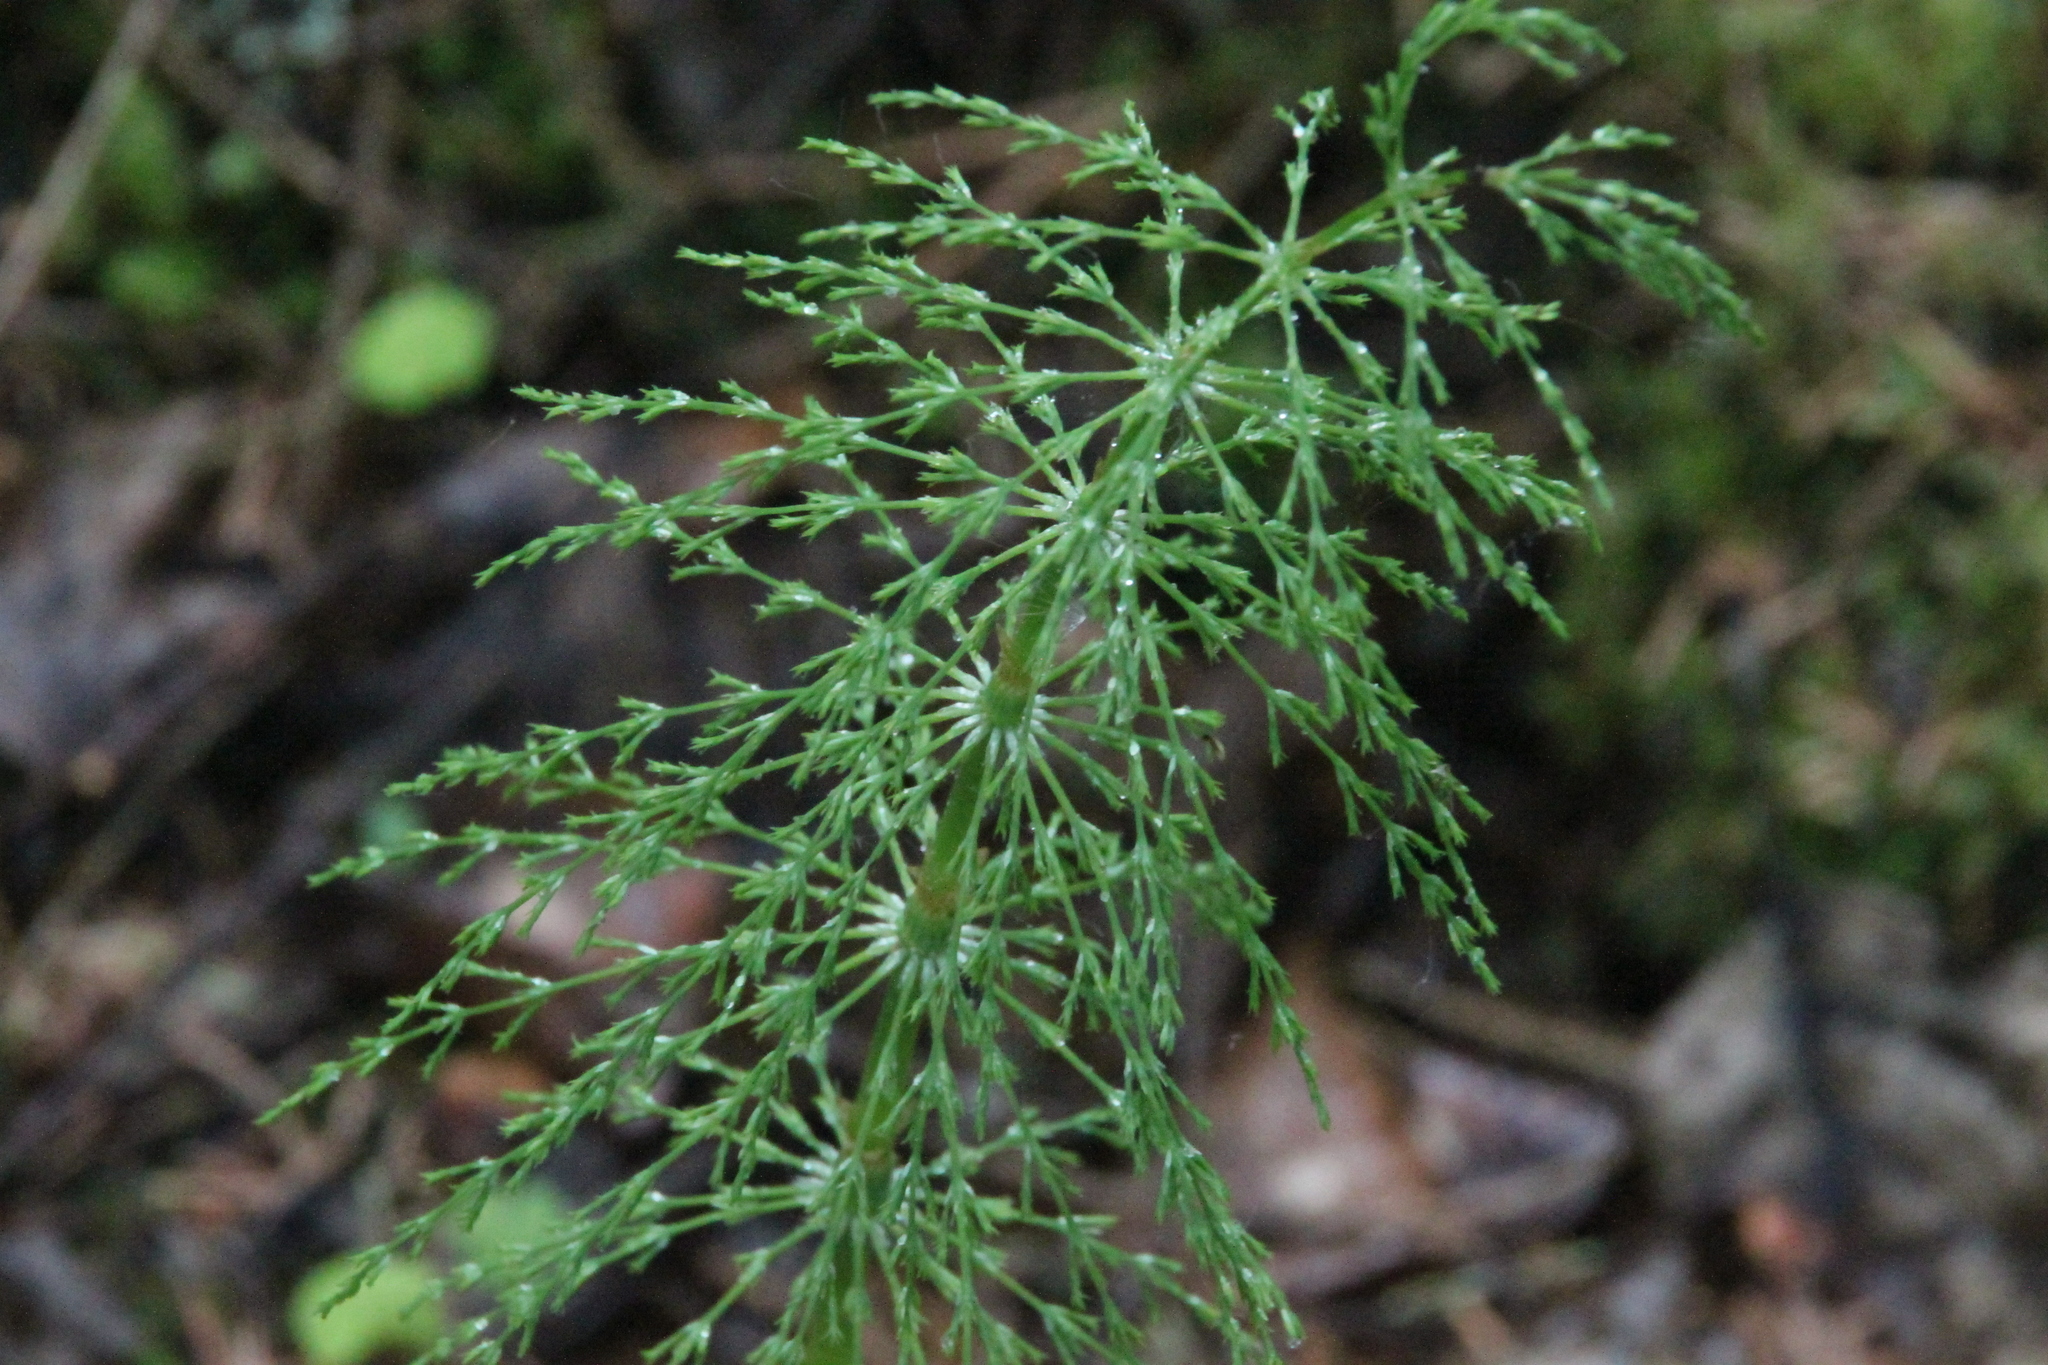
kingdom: Plantae
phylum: Tracheophyta
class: Polypodiopsida
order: Equisetales
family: Equisetaceae
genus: Equisetum
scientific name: Equisetum sylvaticum
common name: Wood horsetail
